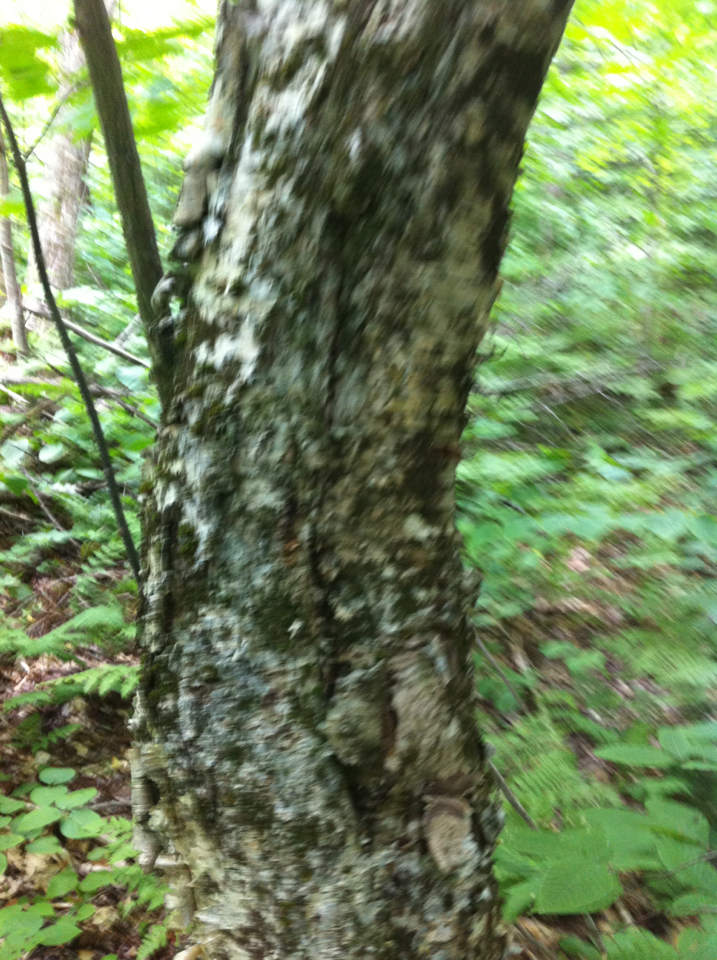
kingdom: Plantae
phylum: Tracheophyta
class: Magnoliopsida
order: Fagales
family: Betulaceae
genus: Betula
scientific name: Betula alleghaniensis
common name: Yellow birch
